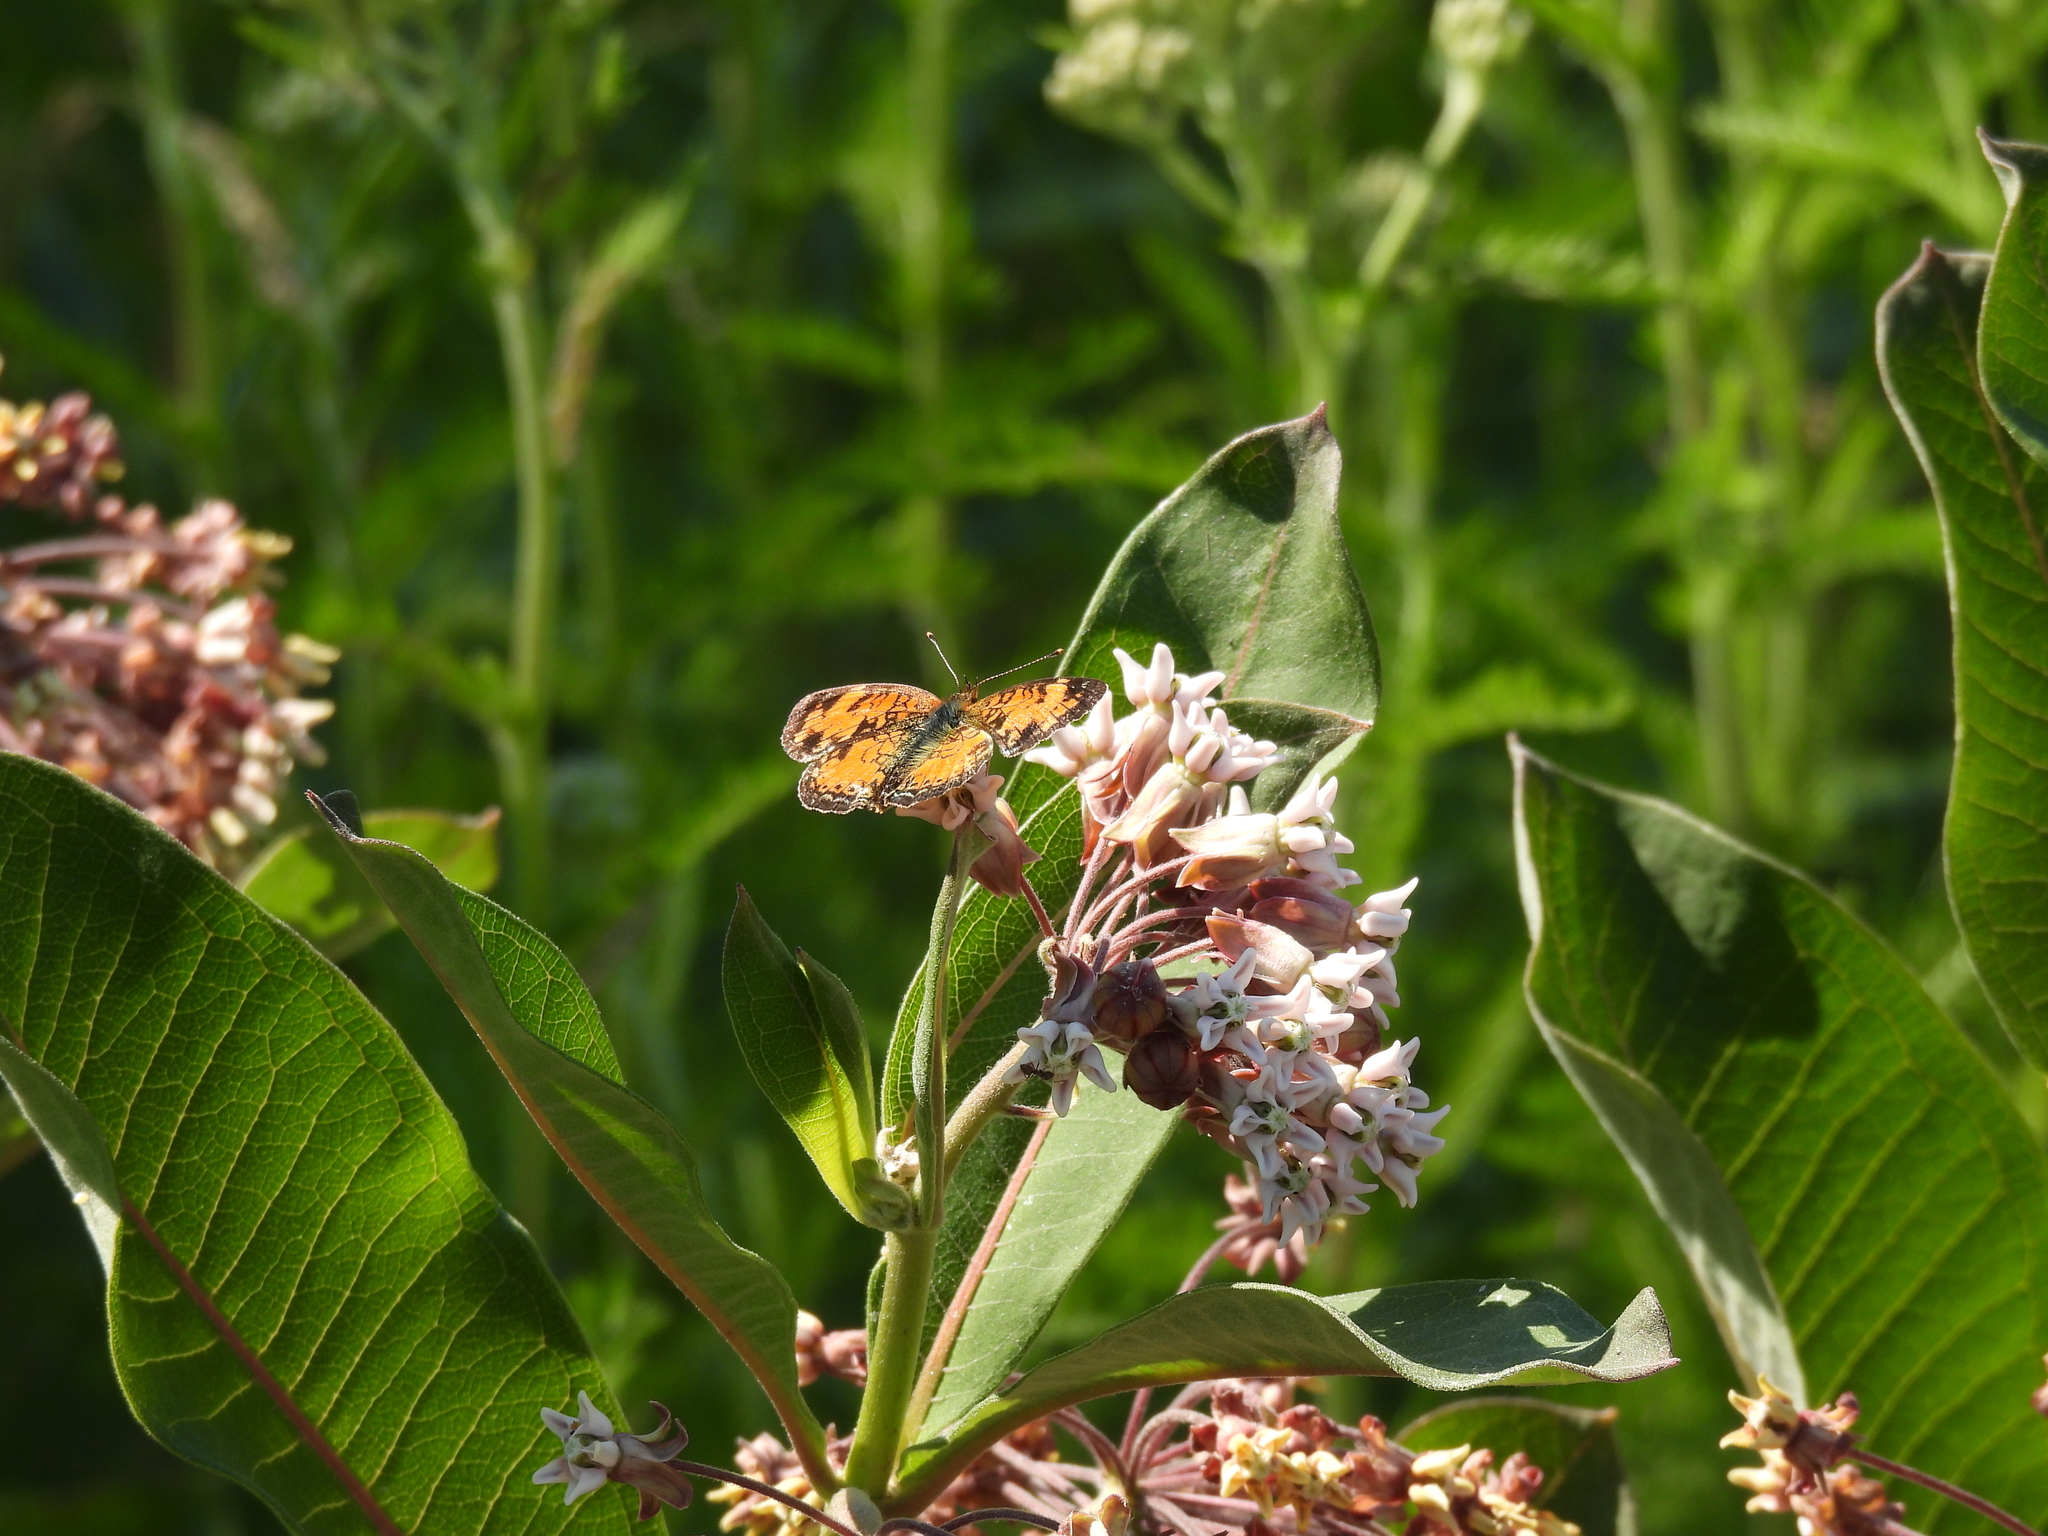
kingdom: Animalia
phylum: Arthropoda
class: Insecta
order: Lepidoptera
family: Nymphalidae
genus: Phyciodes
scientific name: Phyciodes tharos
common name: Pearl crescent
